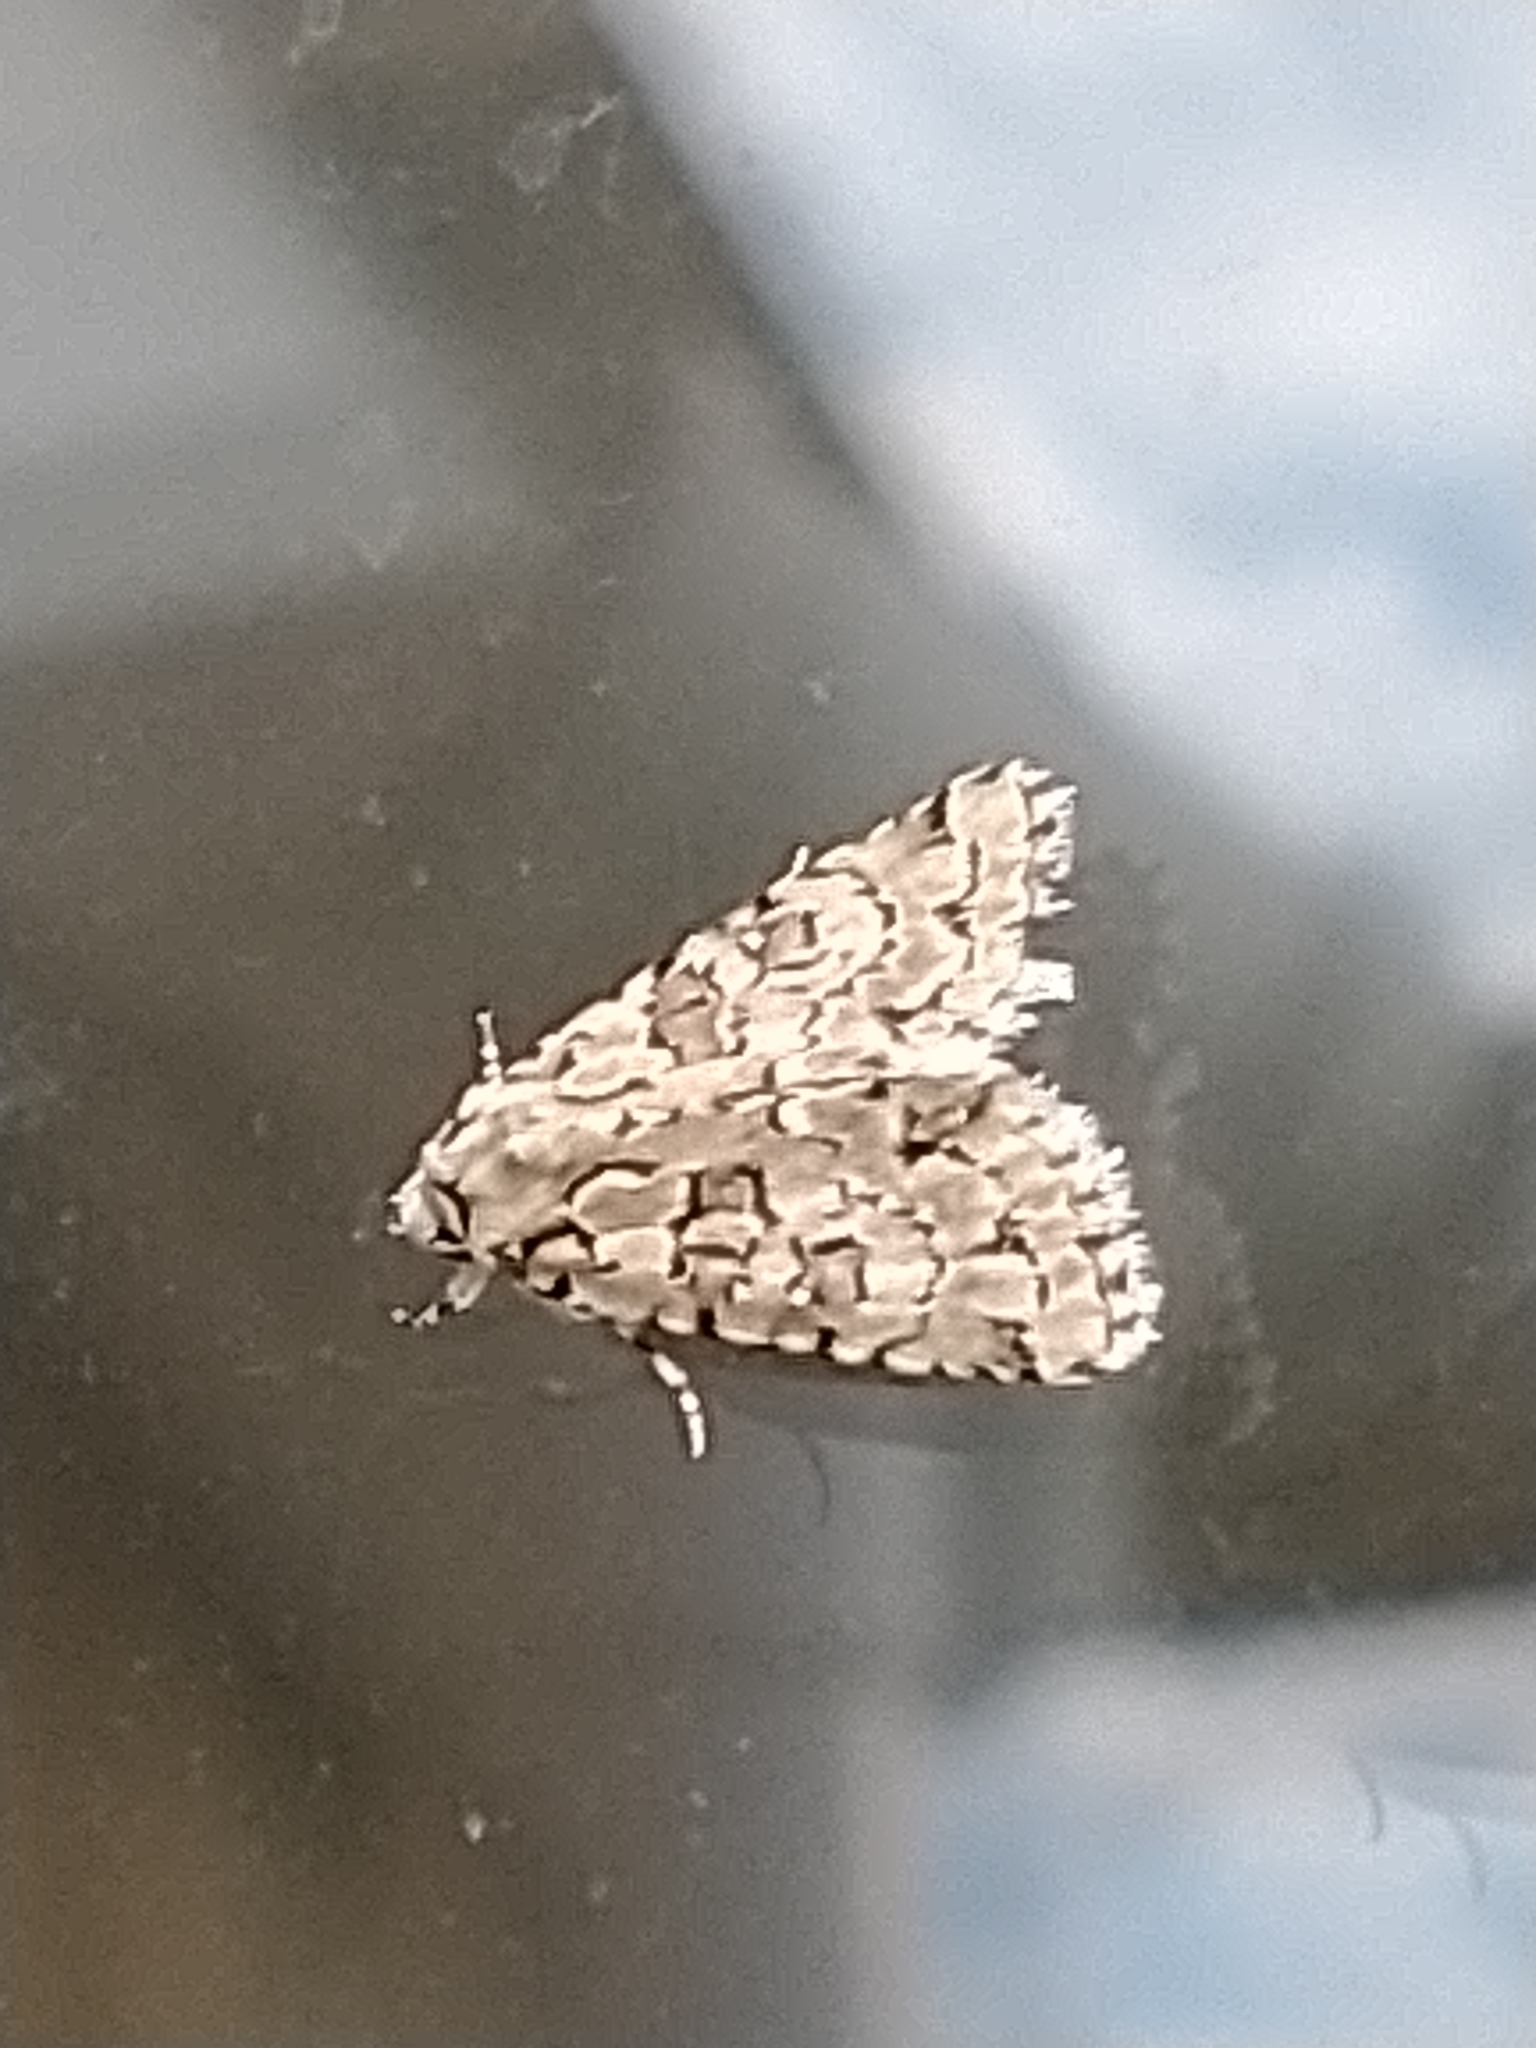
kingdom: Animalia
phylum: Arthropoda
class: Insecta
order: Lepidoptera
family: Noctuidae
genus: Nyctobrya
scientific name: Nyctobrya muralis
